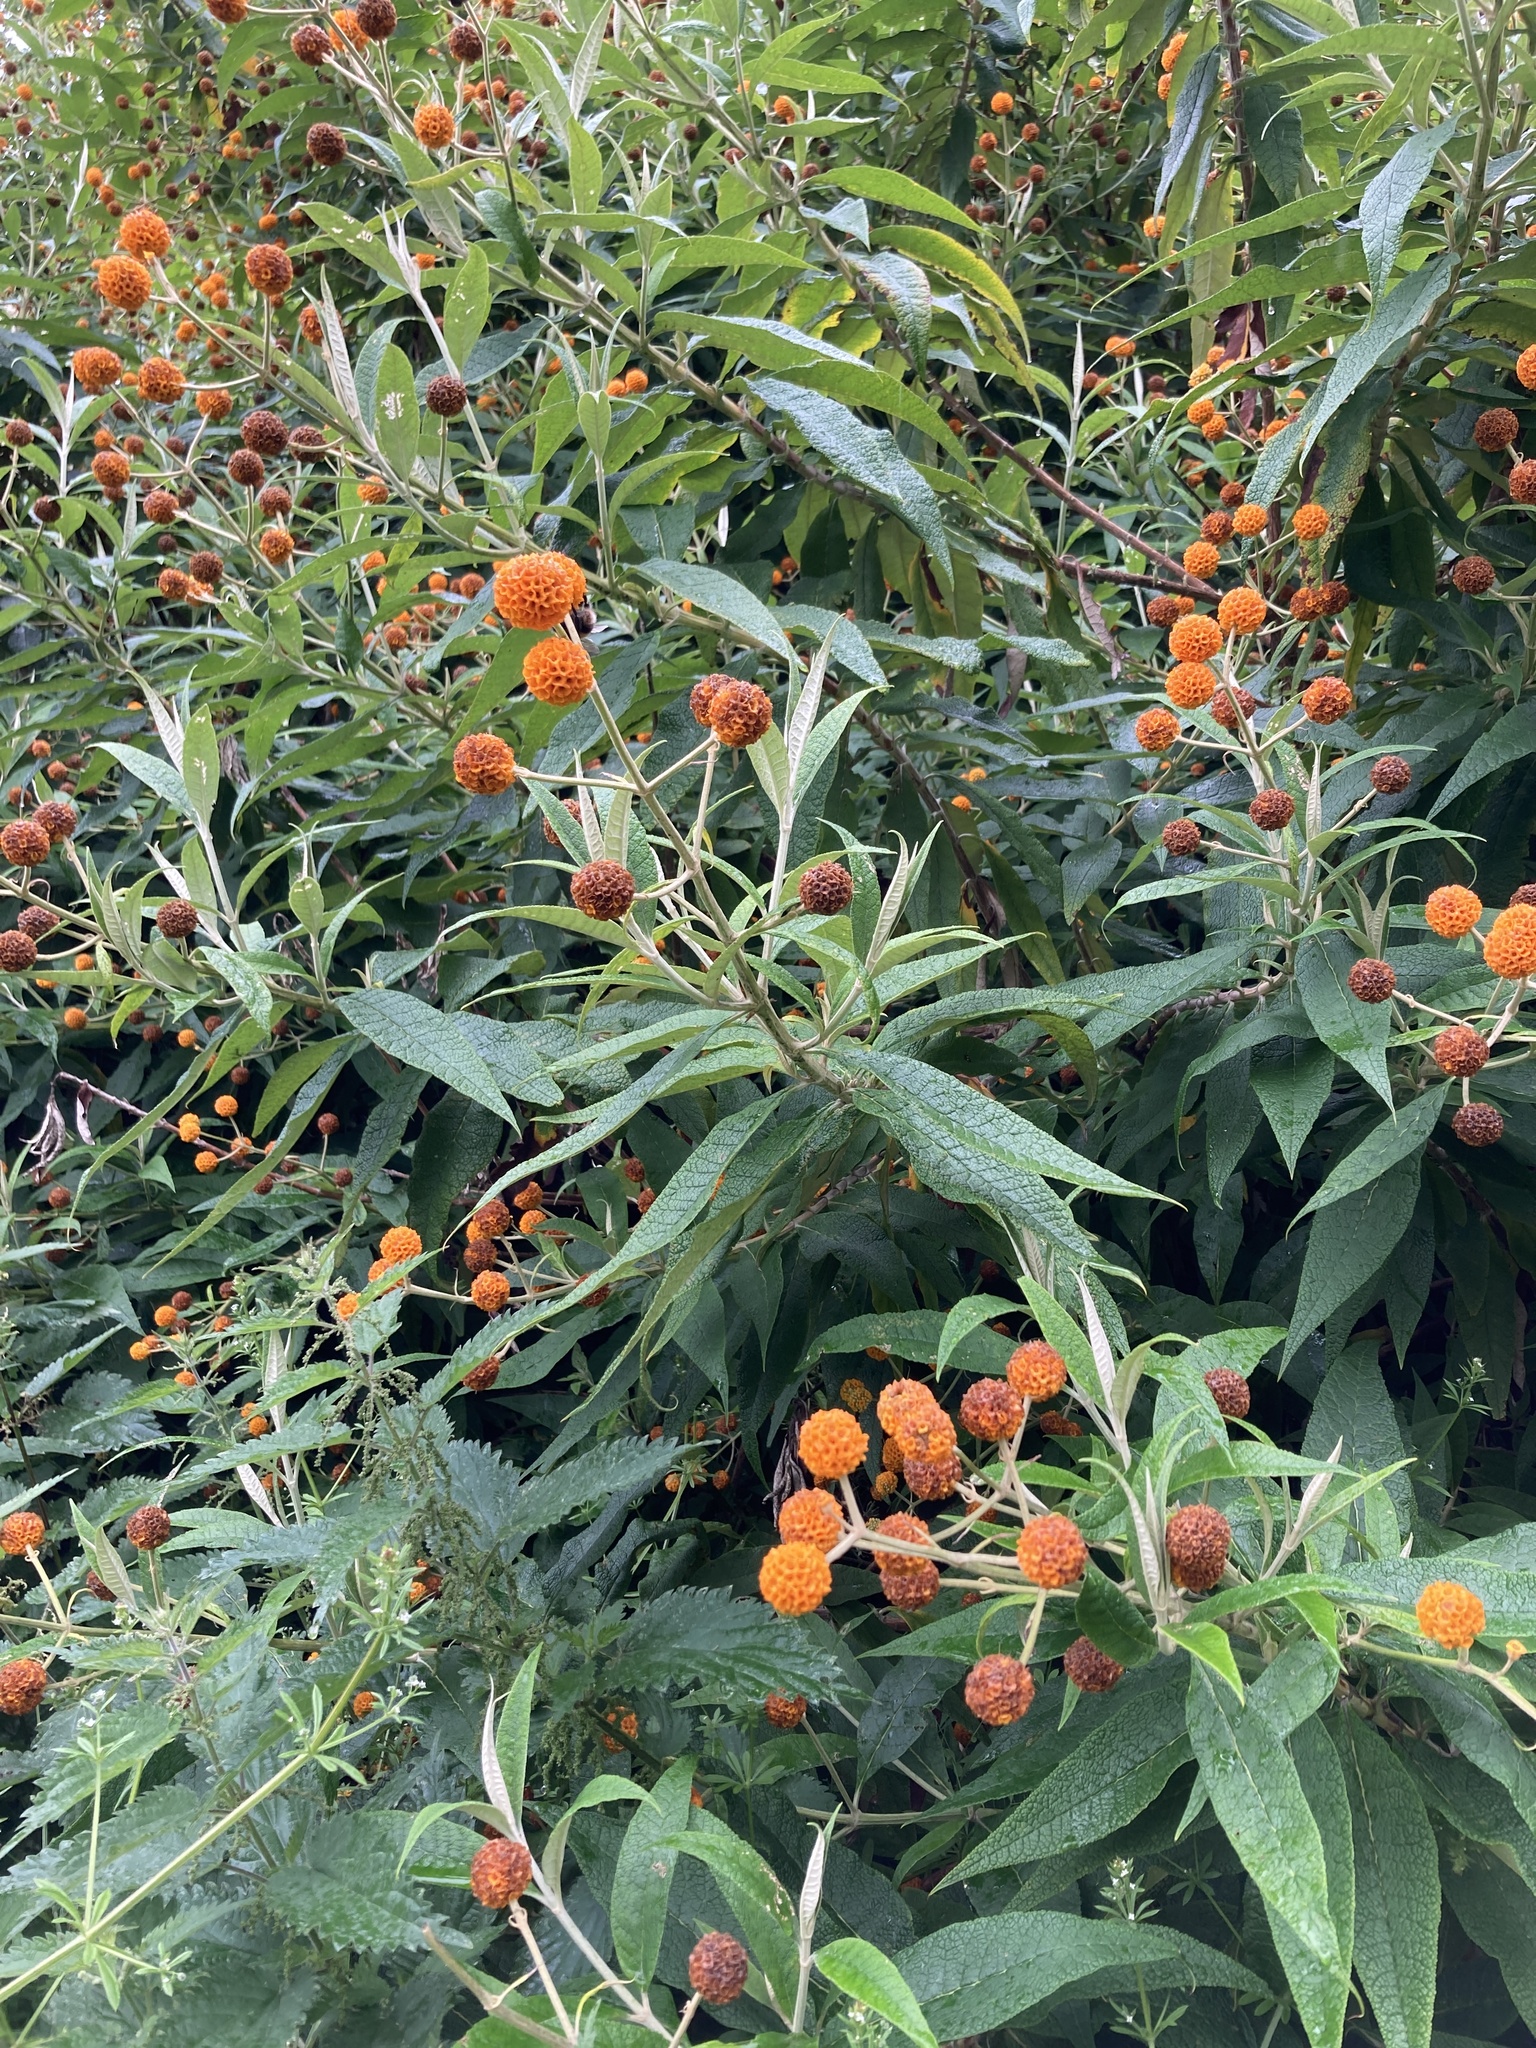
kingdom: Plantae
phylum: Tracheophyta
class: Magnoliopsida
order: Lamiales
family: Scrophulariaceae
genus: Buddleja
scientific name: Buddleja globosa
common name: Orange-ball-tree
